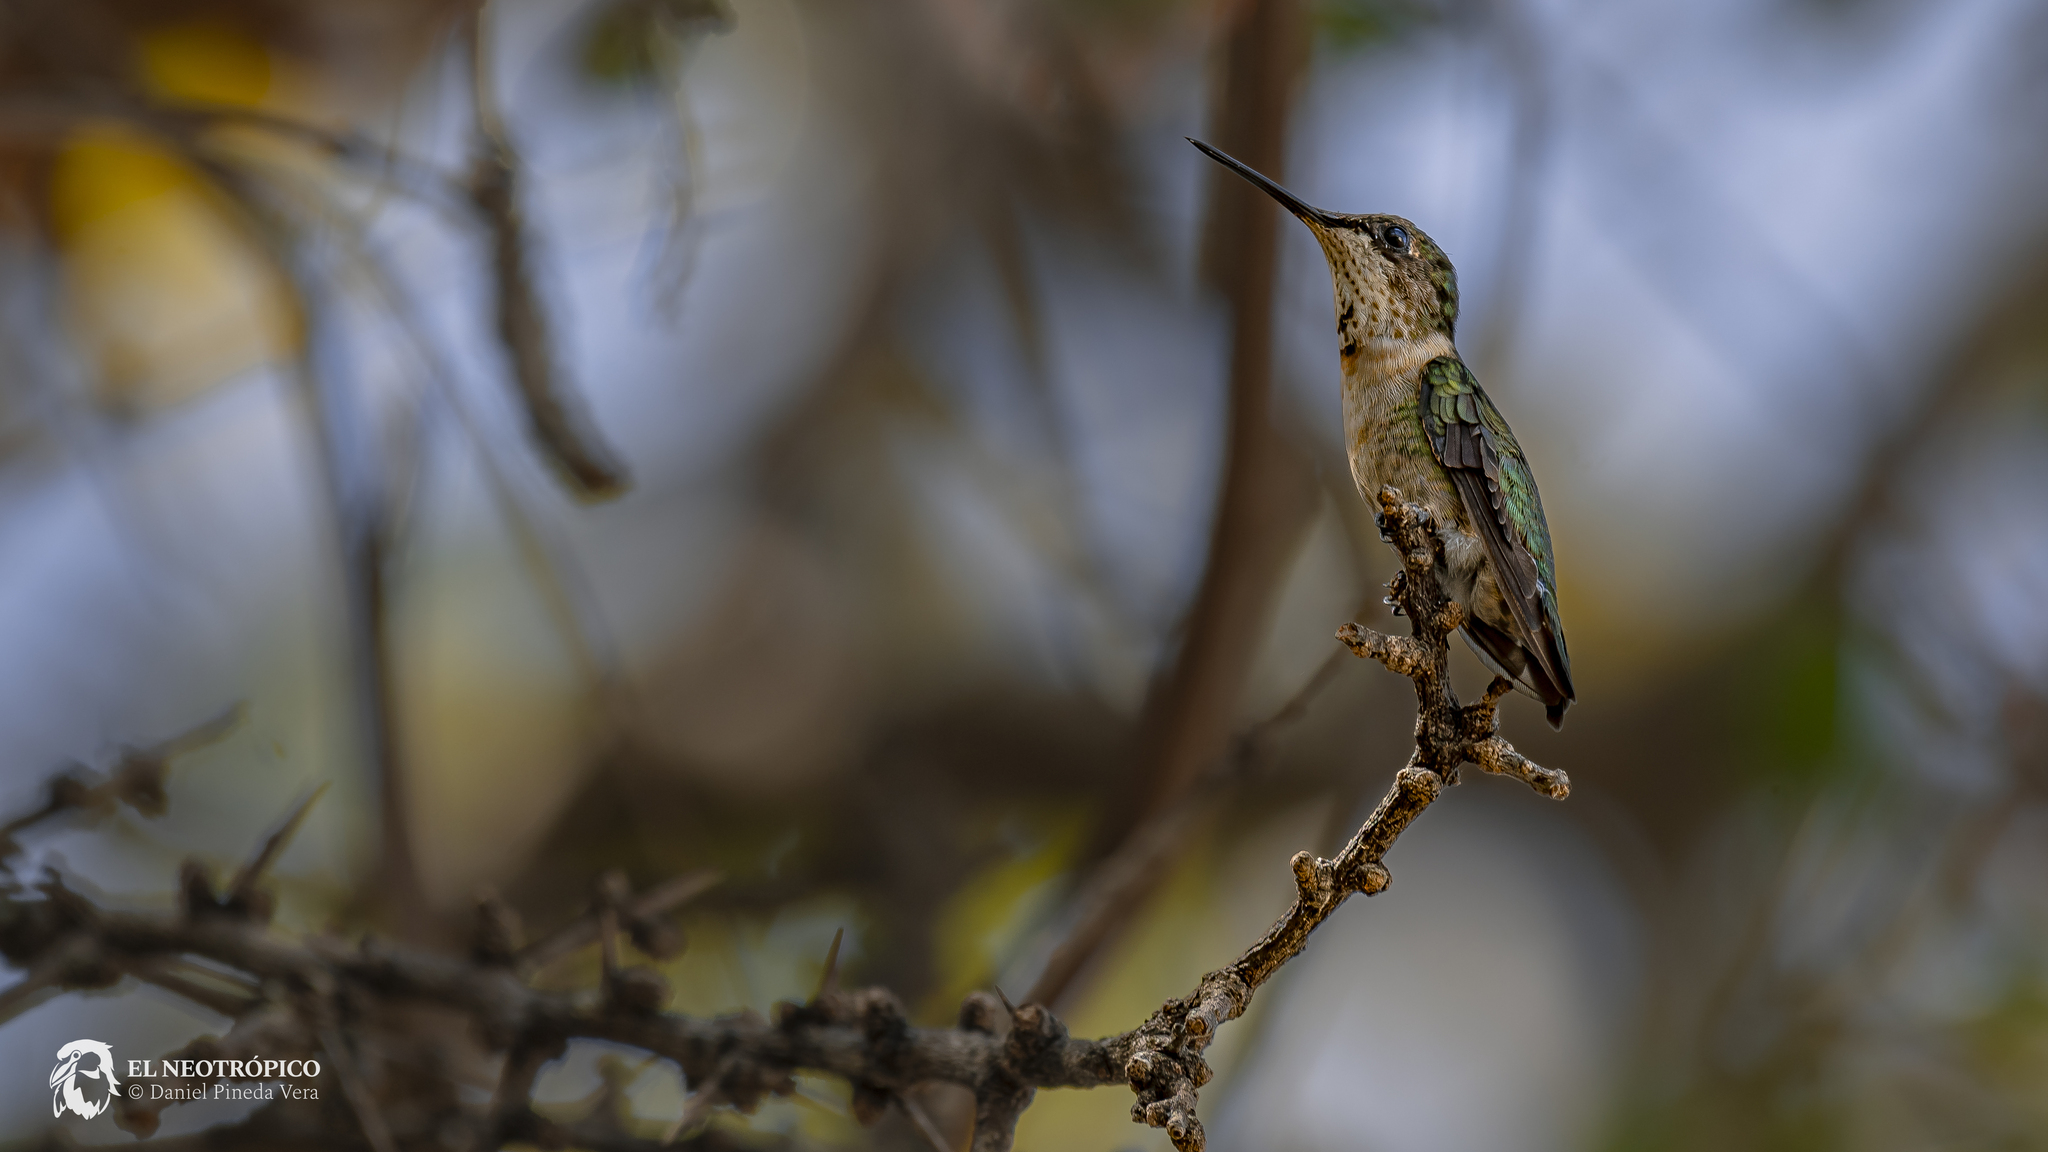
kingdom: Animalia
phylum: Chordata
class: Aves
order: Apodiformes
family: Trochilidae
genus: Archilochus
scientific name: Archilochus colubris
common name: Ruby-throated hummingbird
